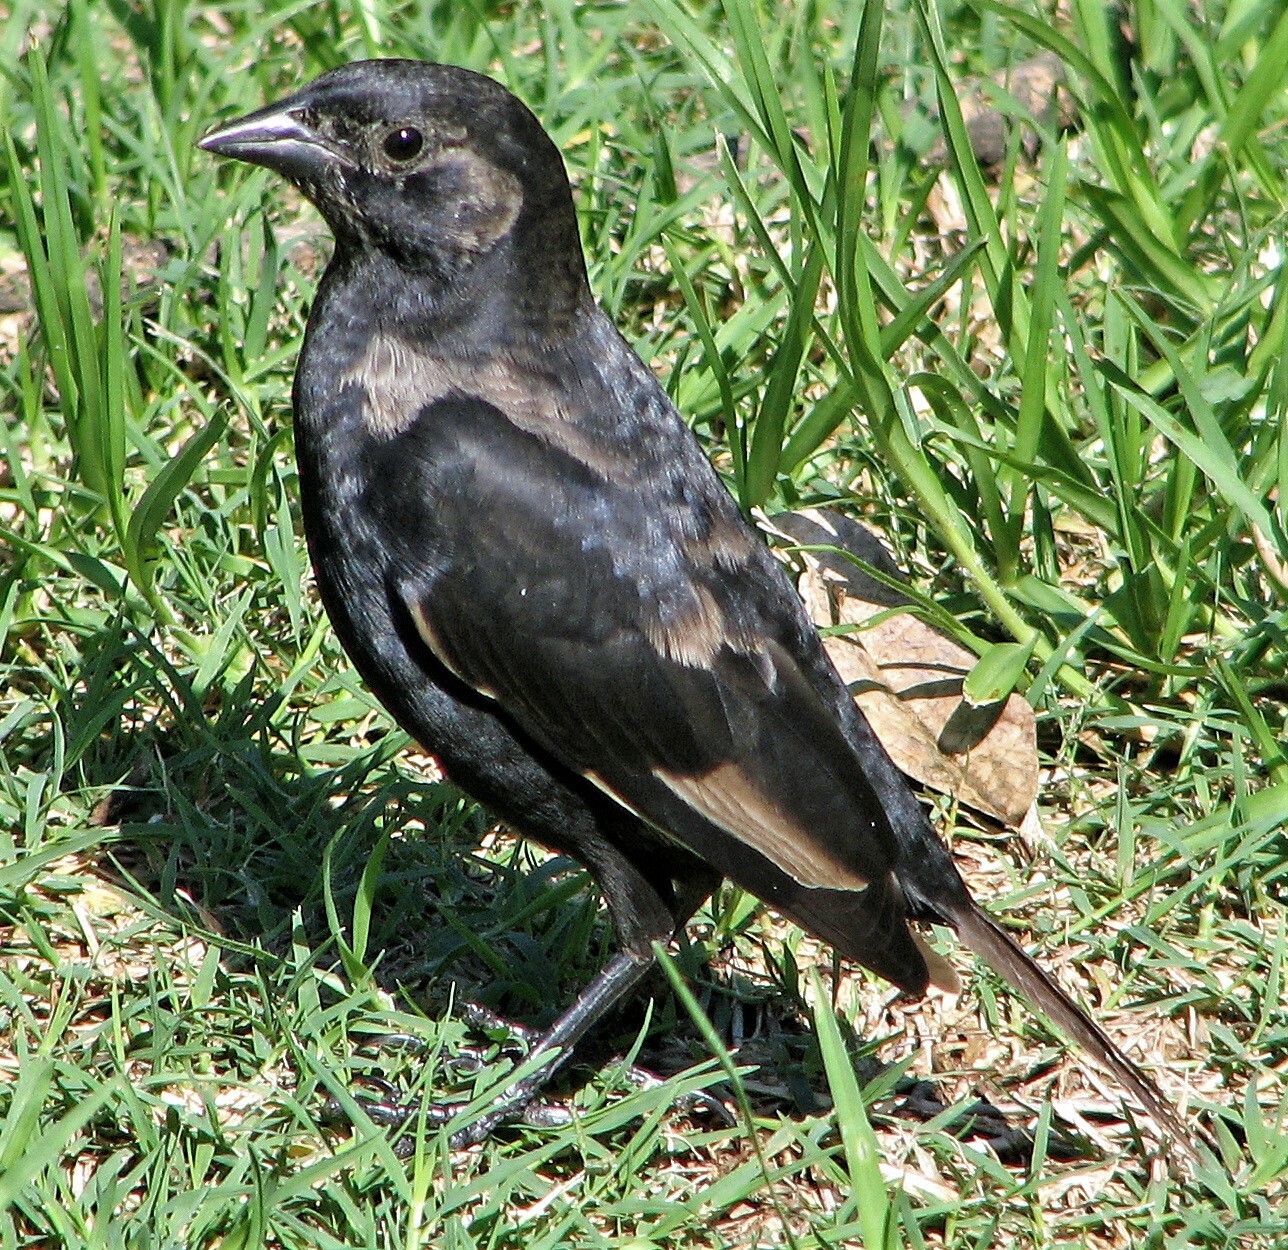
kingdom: Animalia
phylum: Chordata
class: Aves
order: Passeriformes
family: Icteridae
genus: Molothrus
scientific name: Molothrus rufoaxillaris
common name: Screaming cowbird
